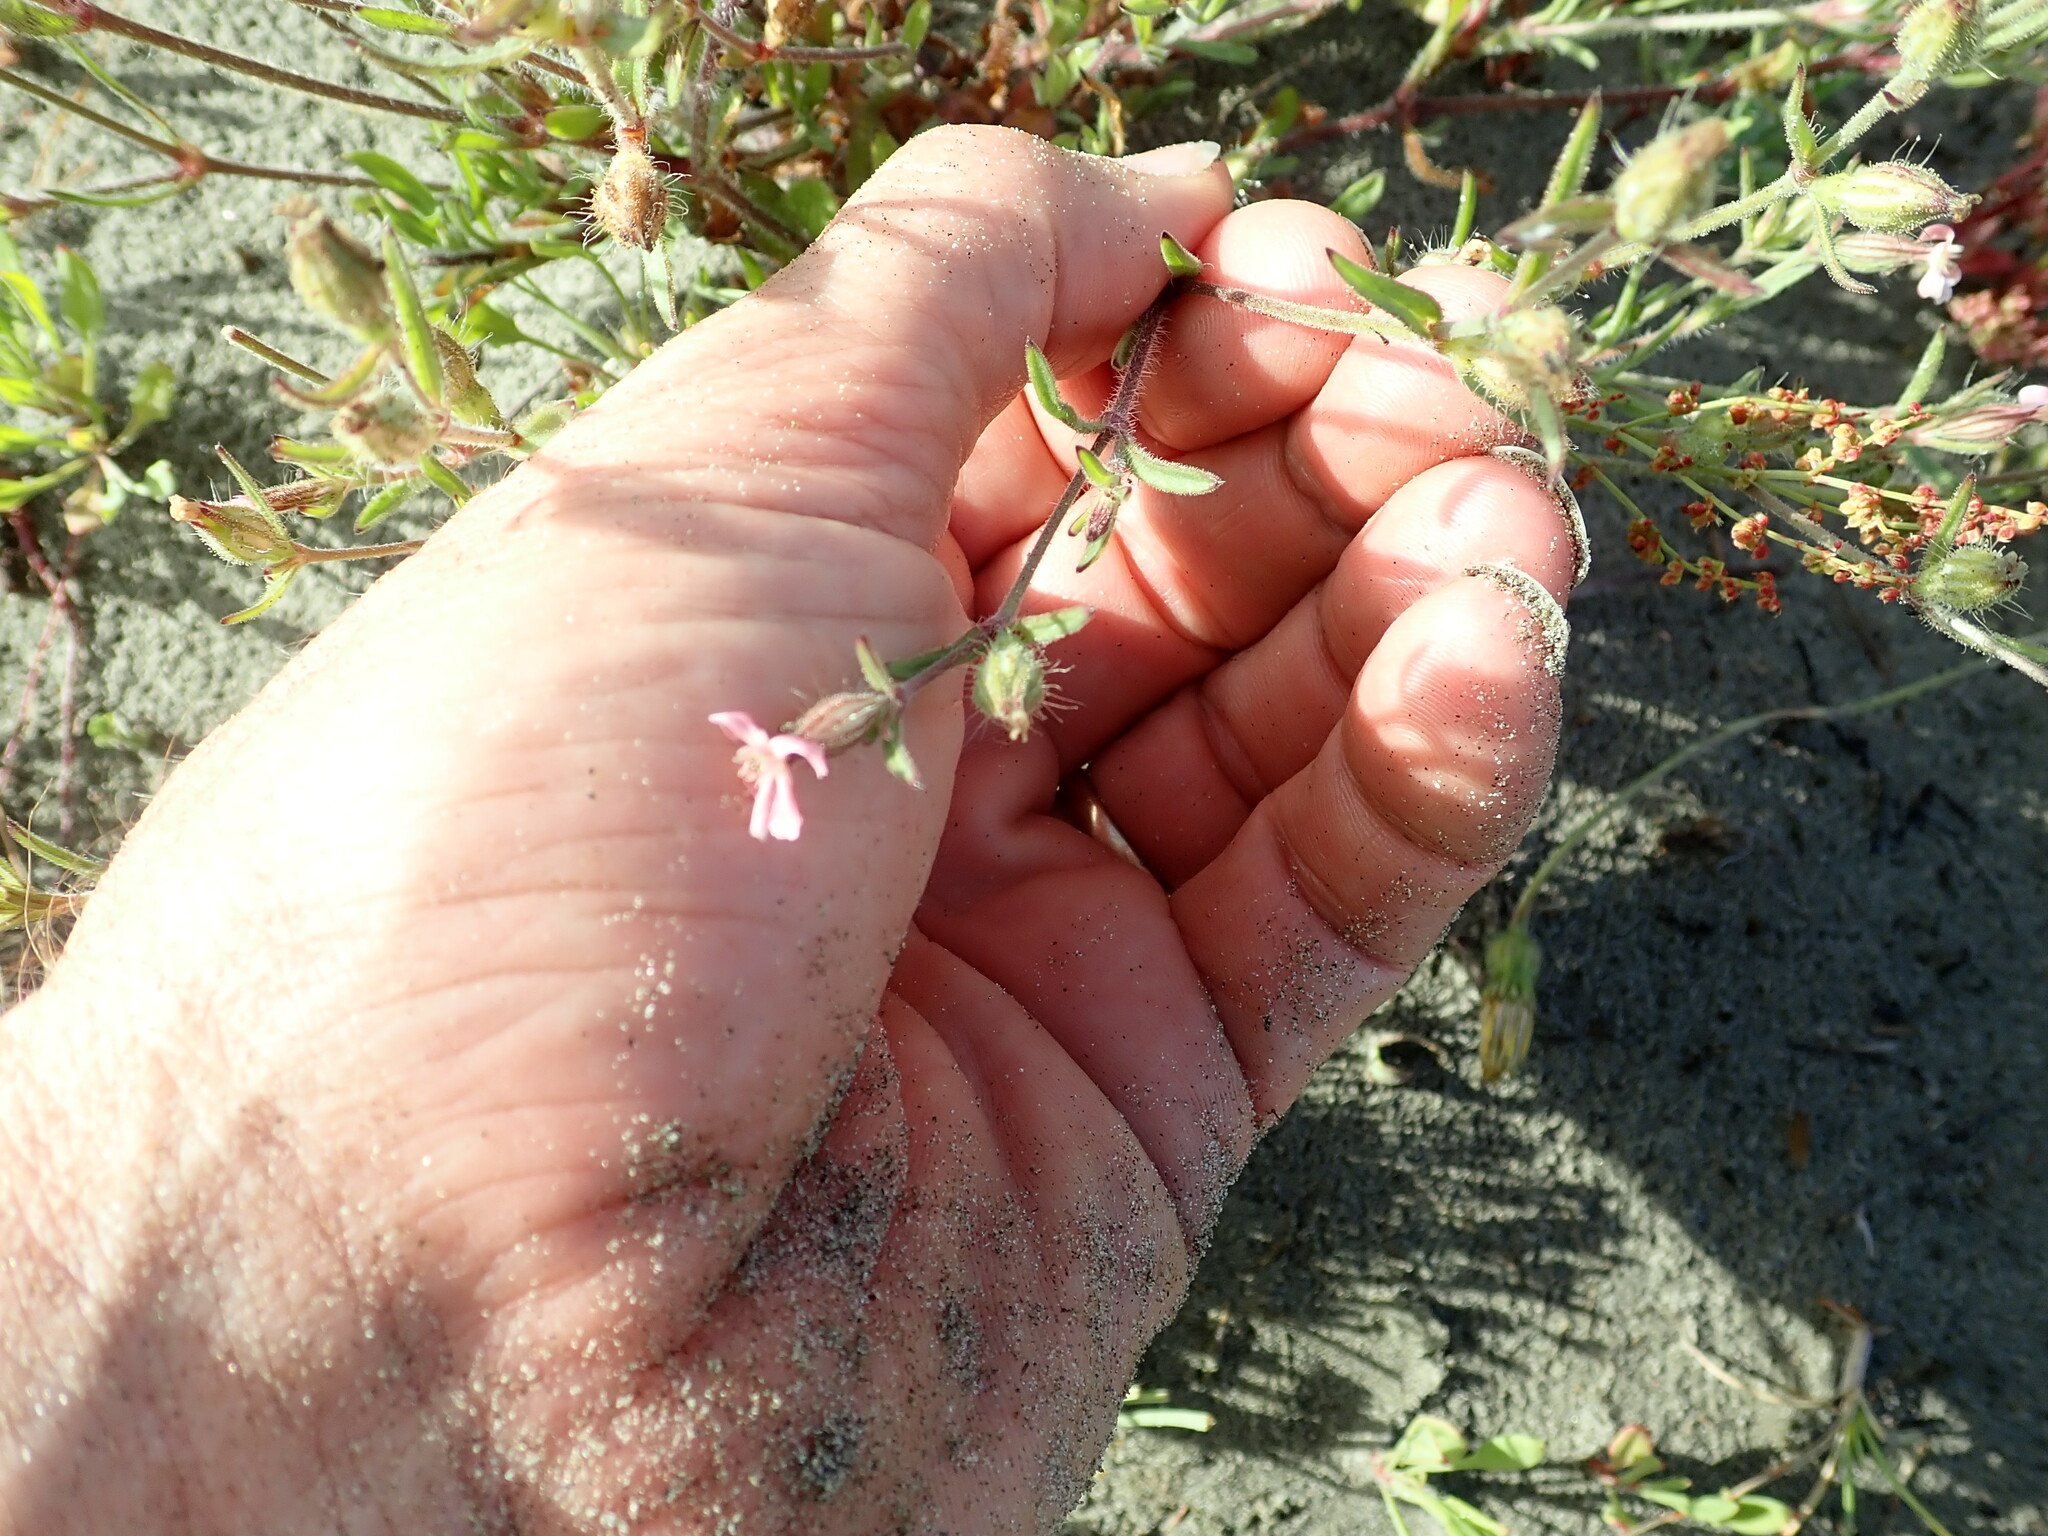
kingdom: Plantae
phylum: Tracheophyta
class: Magnoliopsida
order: Caryophyllales
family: Caryophyllaceae
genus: Silene
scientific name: Silene gallica
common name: Small-flowered catchfly
